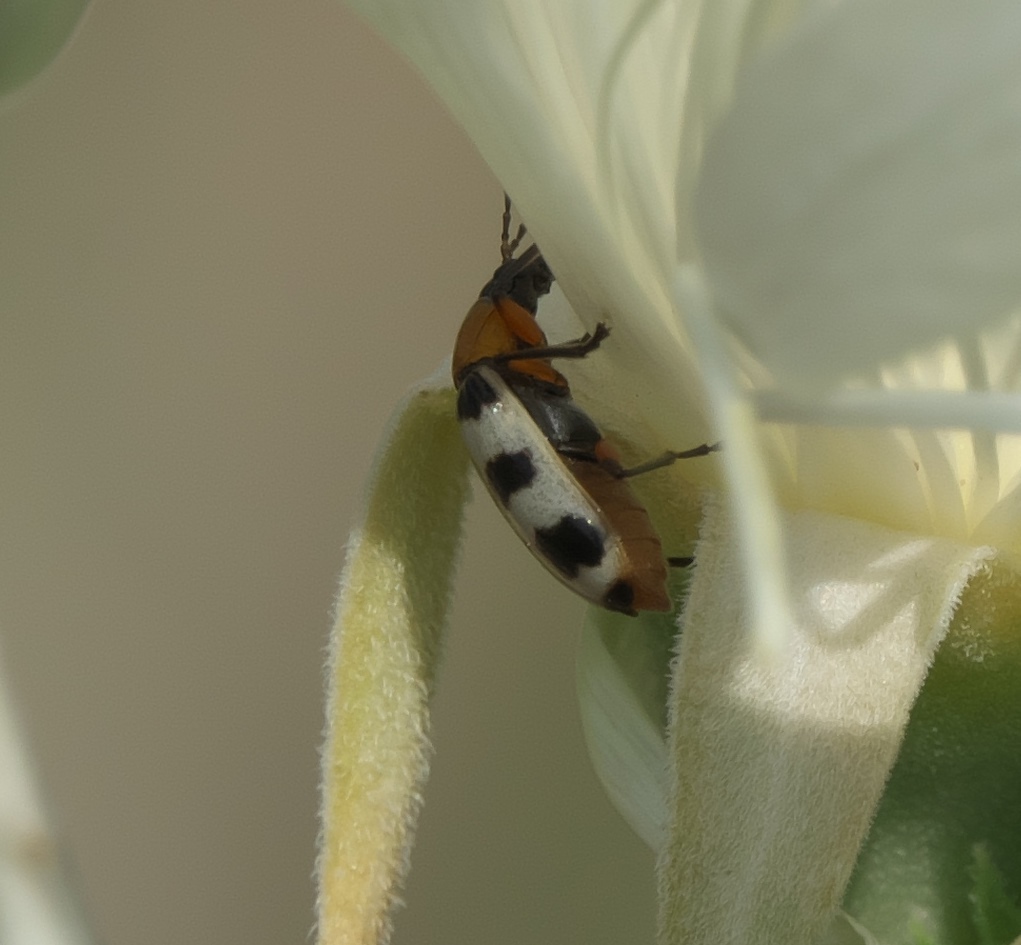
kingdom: Animalia
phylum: Arthropoda
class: Insecta
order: Coleoptera
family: Chrysomelidae
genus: Paranapiacaba
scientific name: Paranapiacaba tricincta
